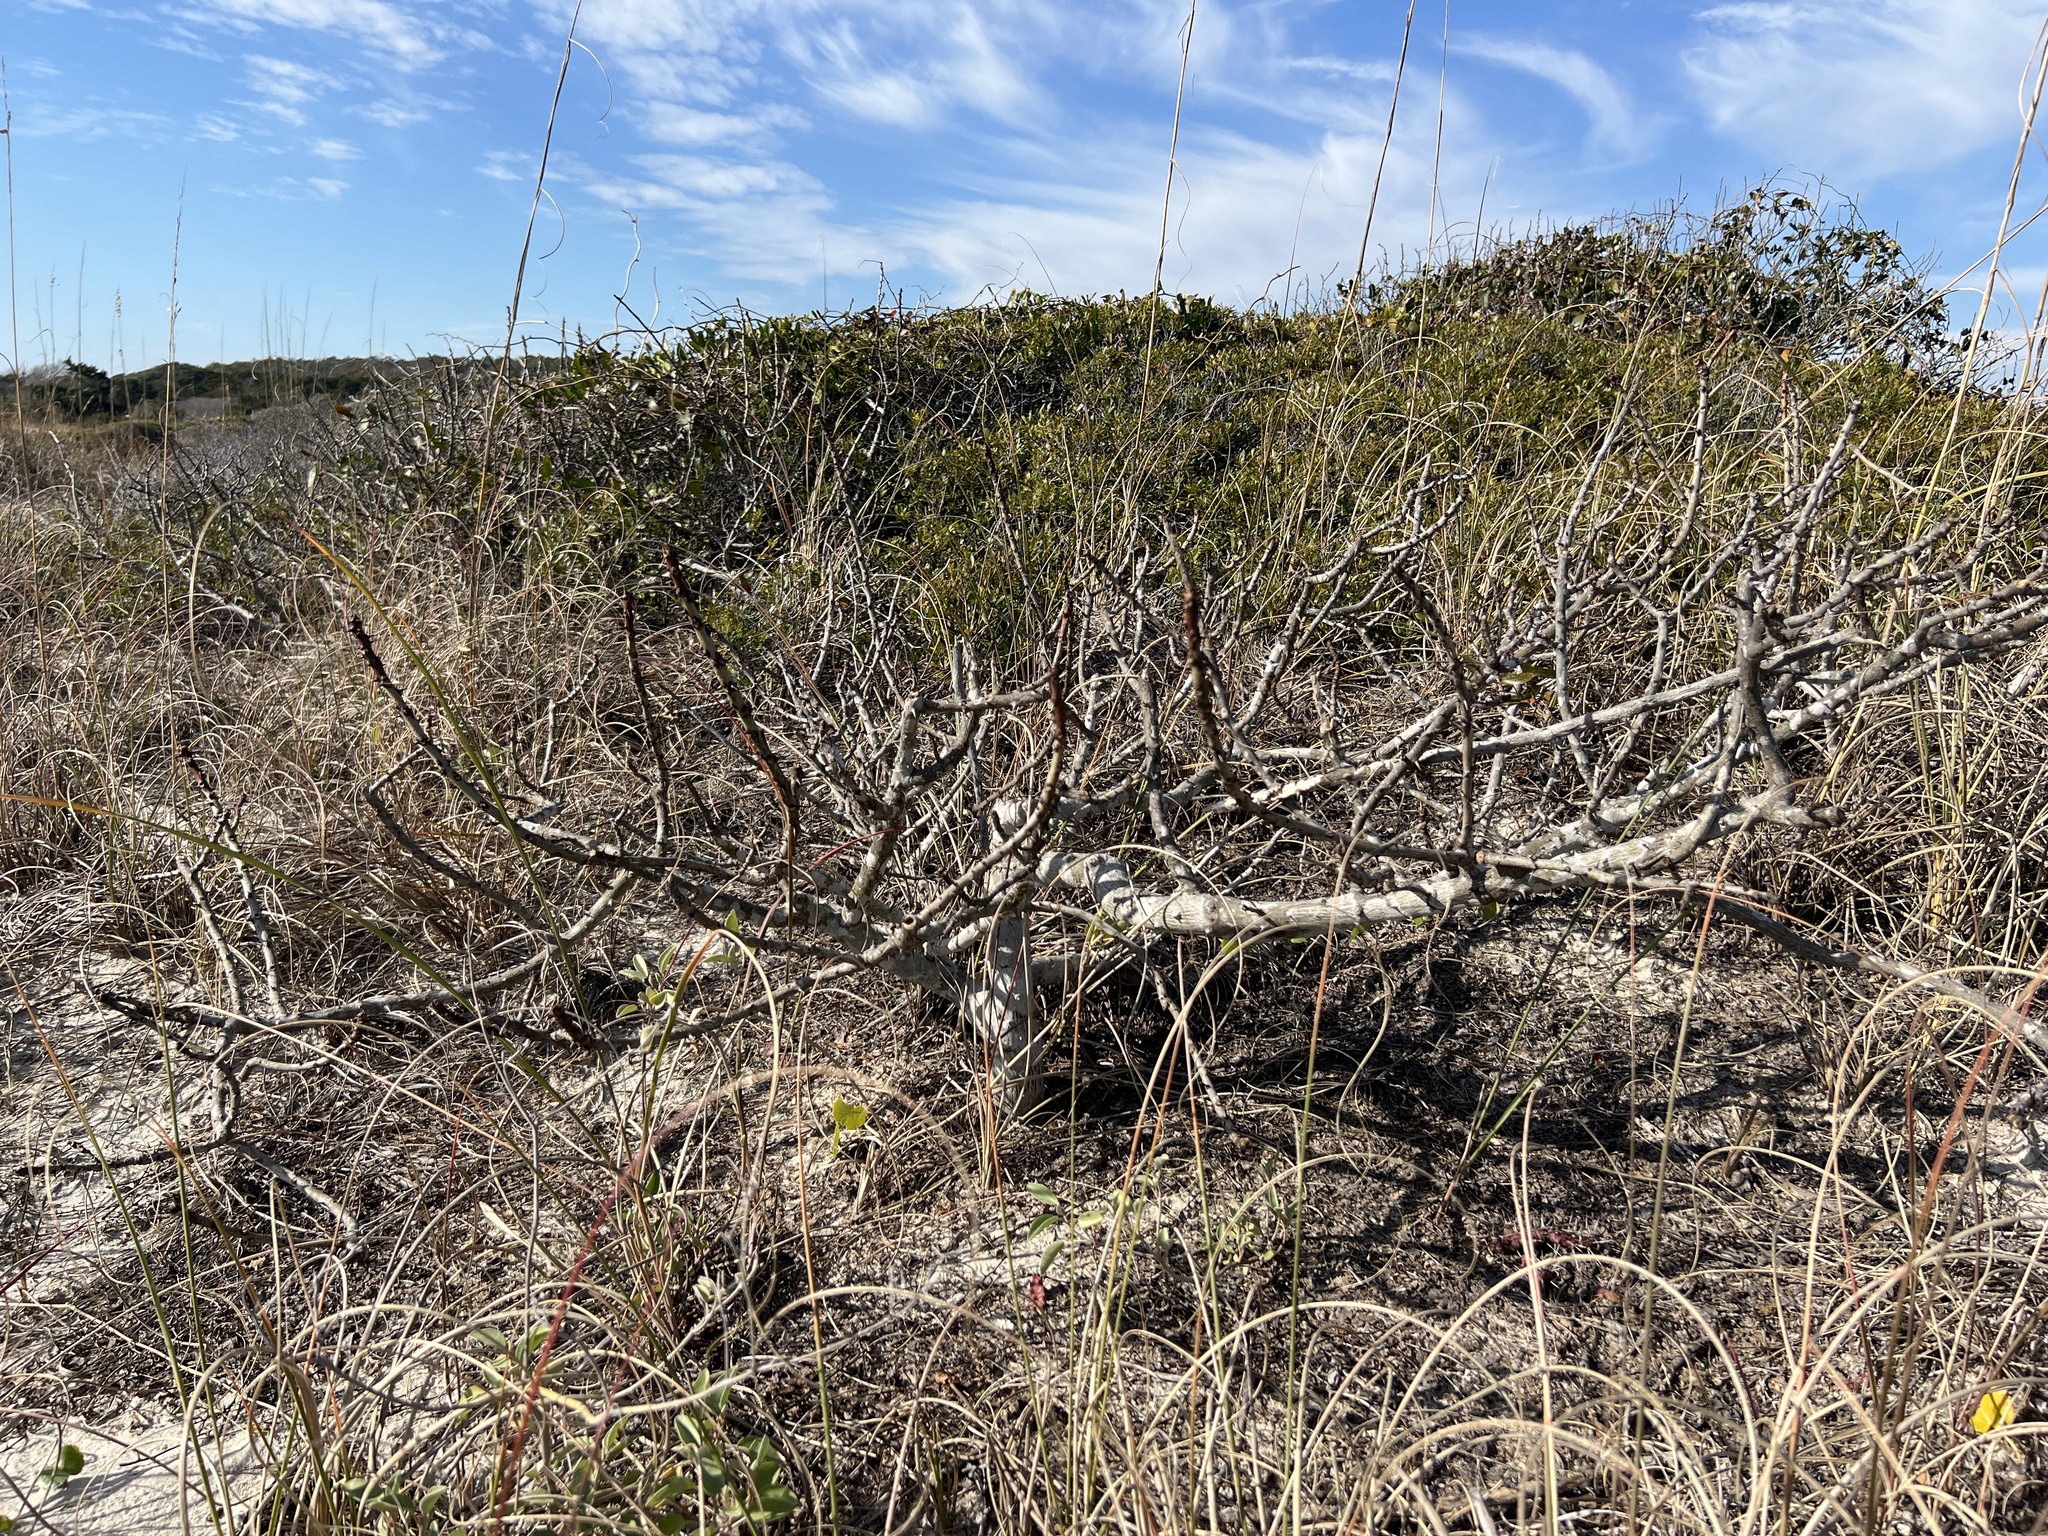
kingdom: Plantae
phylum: Tracheophyta
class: Magnoliopsida
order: Sapindales
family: Rutaceae
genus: Zanthoxylum
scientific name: Zanthoxylum clava-herculis
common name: Hercules'-club
